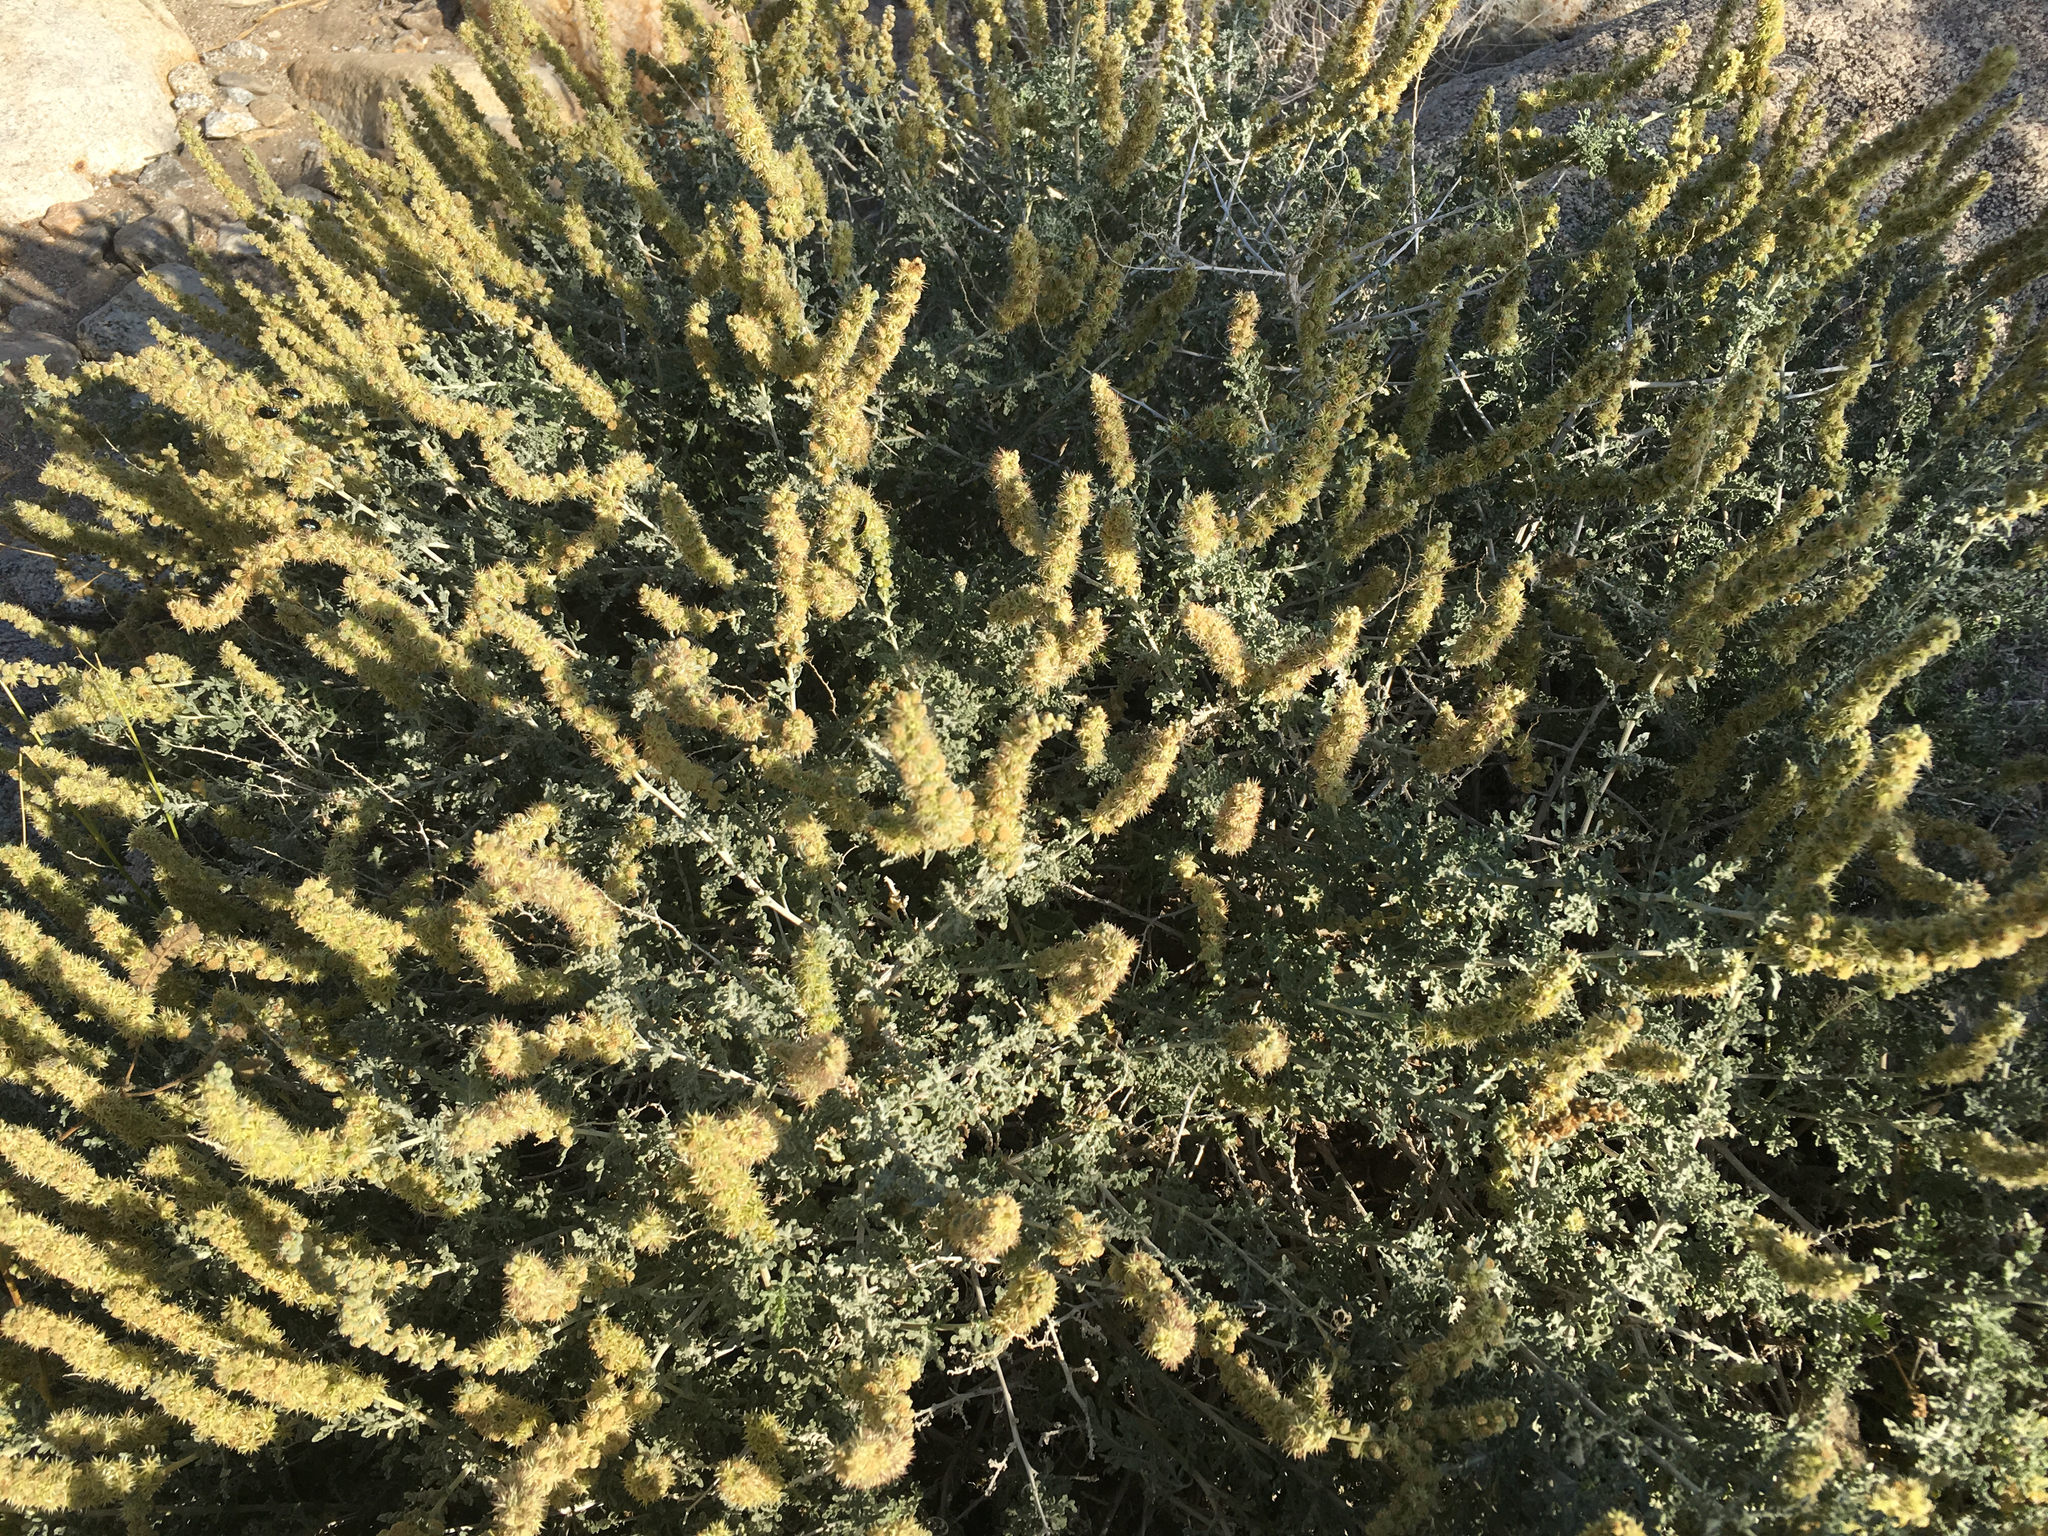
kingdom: Plantae
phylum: Tracheophyta
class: Magnoliopsida
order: Asterales
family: Asteraceae
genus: Ambrosia
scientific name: Ambrosia dumosa
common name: Bur-sage
